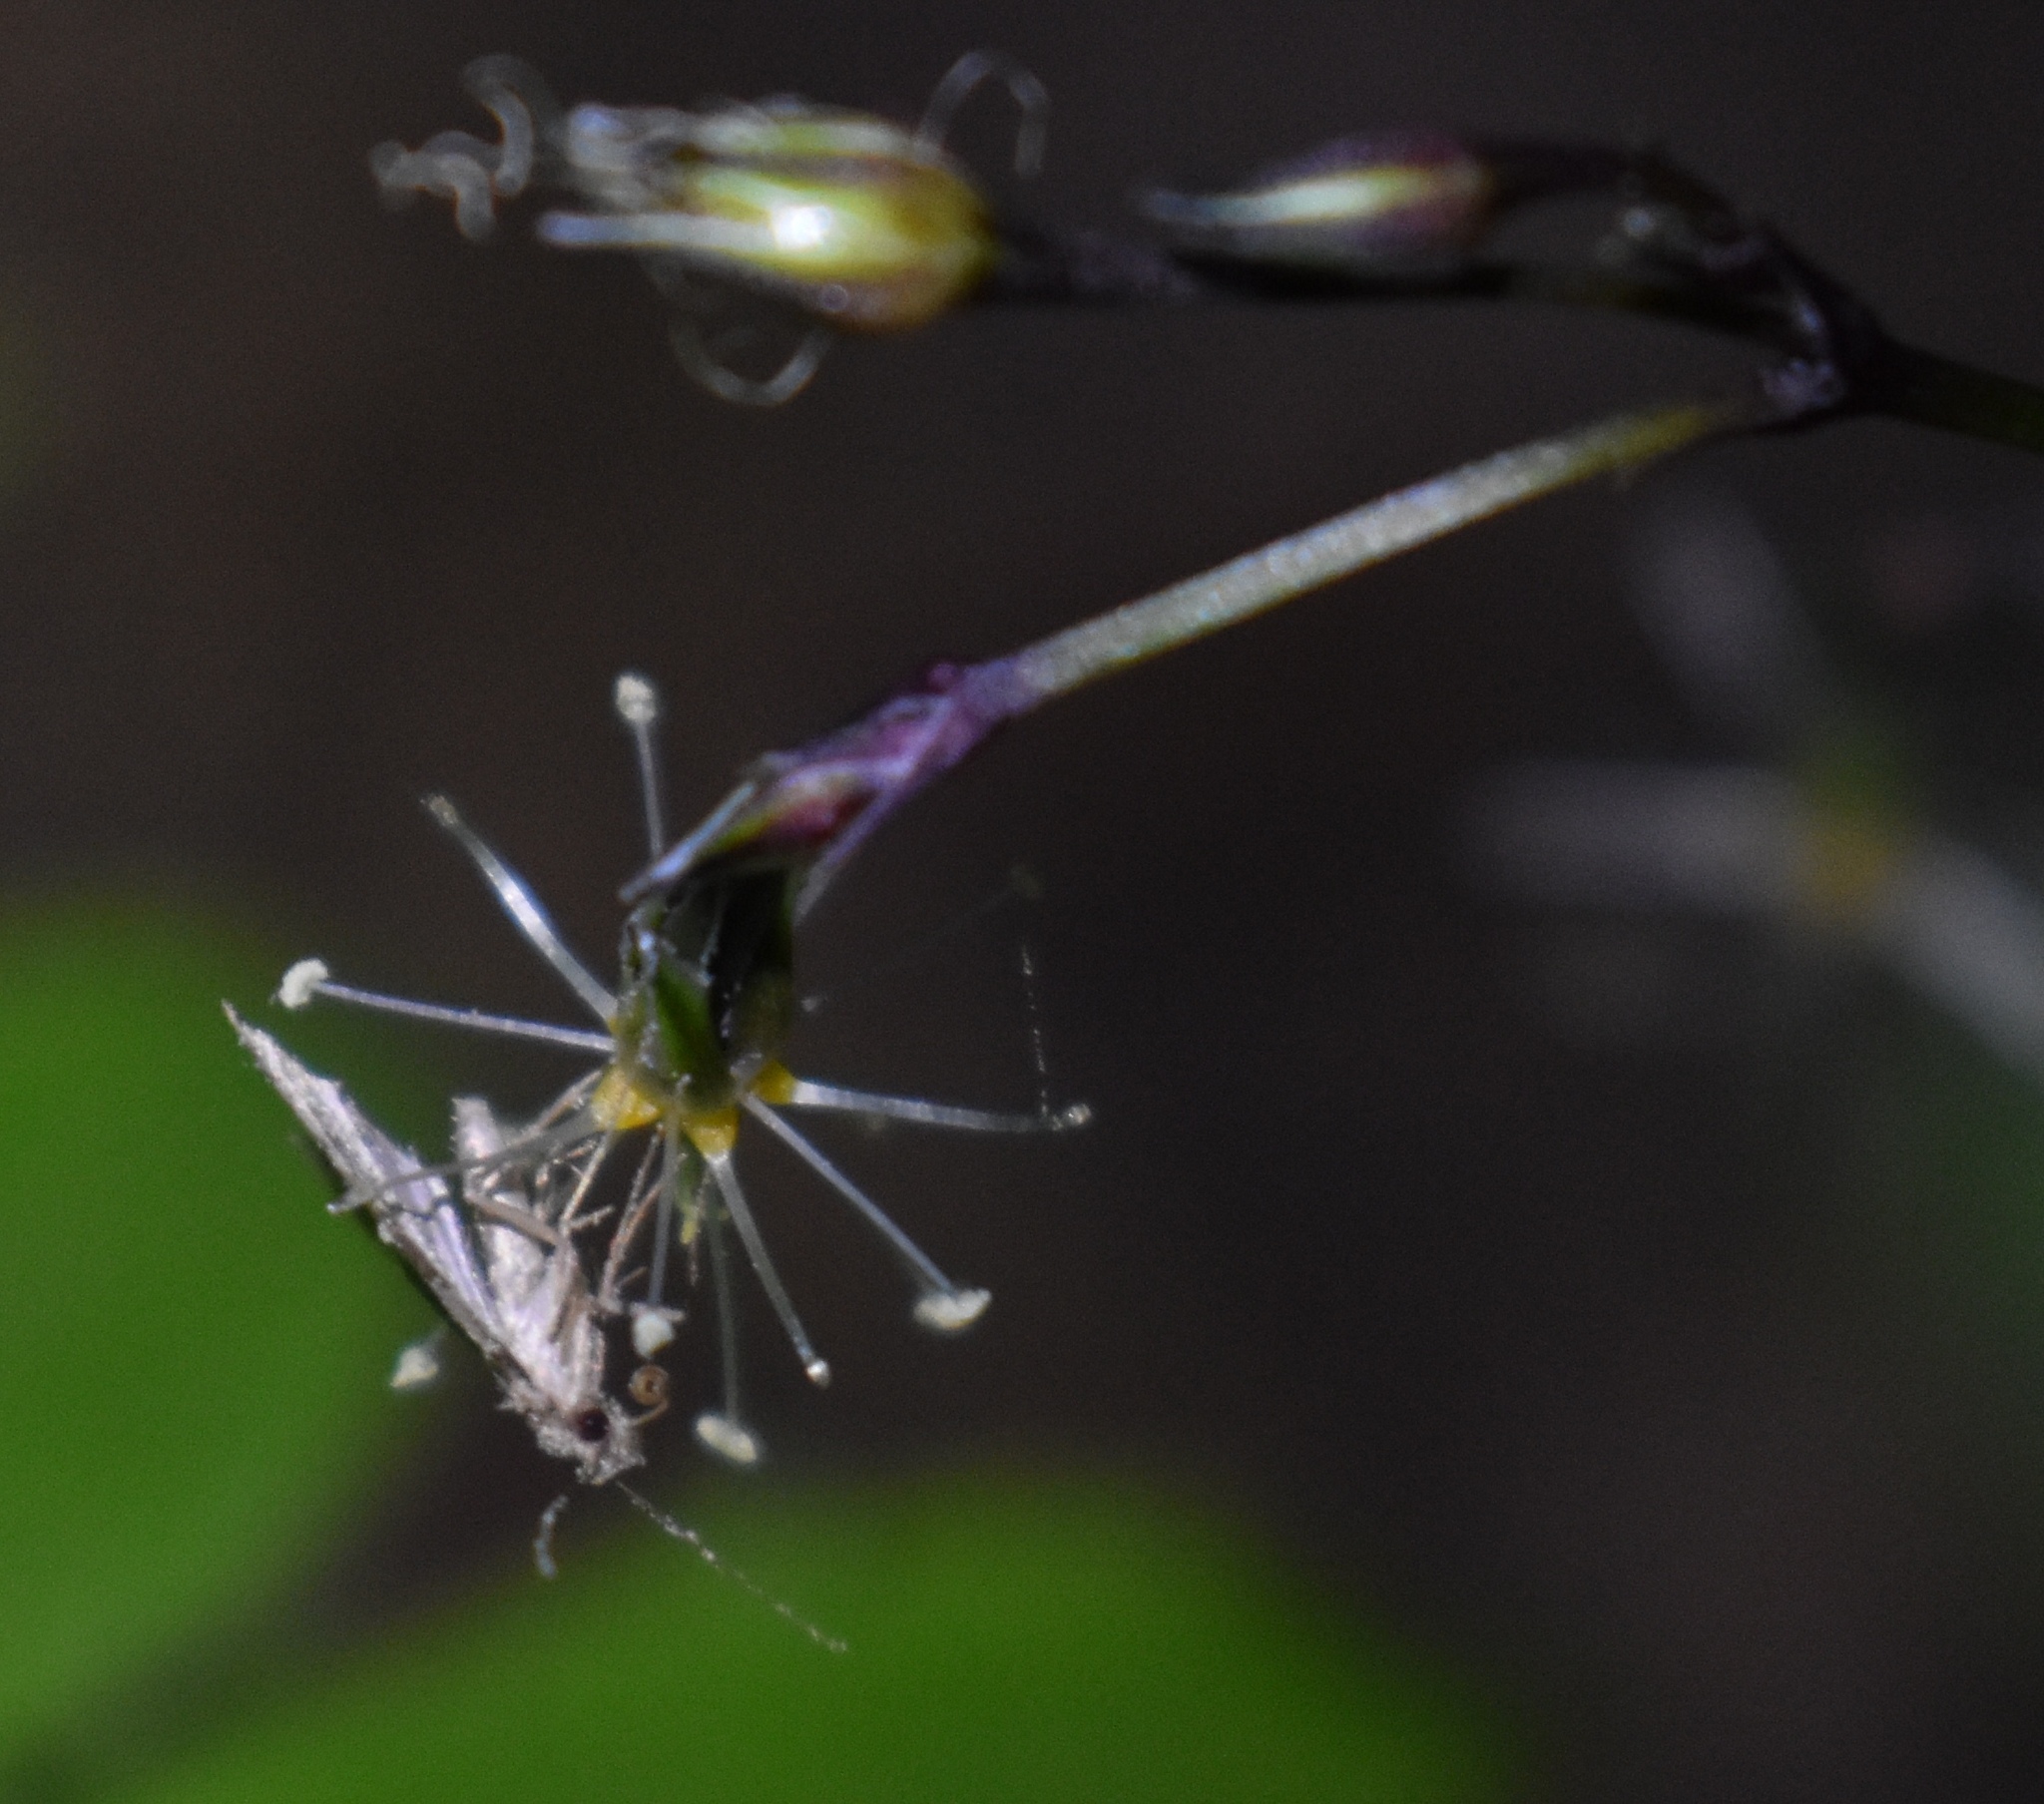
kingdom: Animalia
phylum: Arthropoda
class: Insecta
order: Lepidoptera
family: Erebidae
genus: Pseudoschrankia
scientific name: Pseudoschrankia brevipalpis
